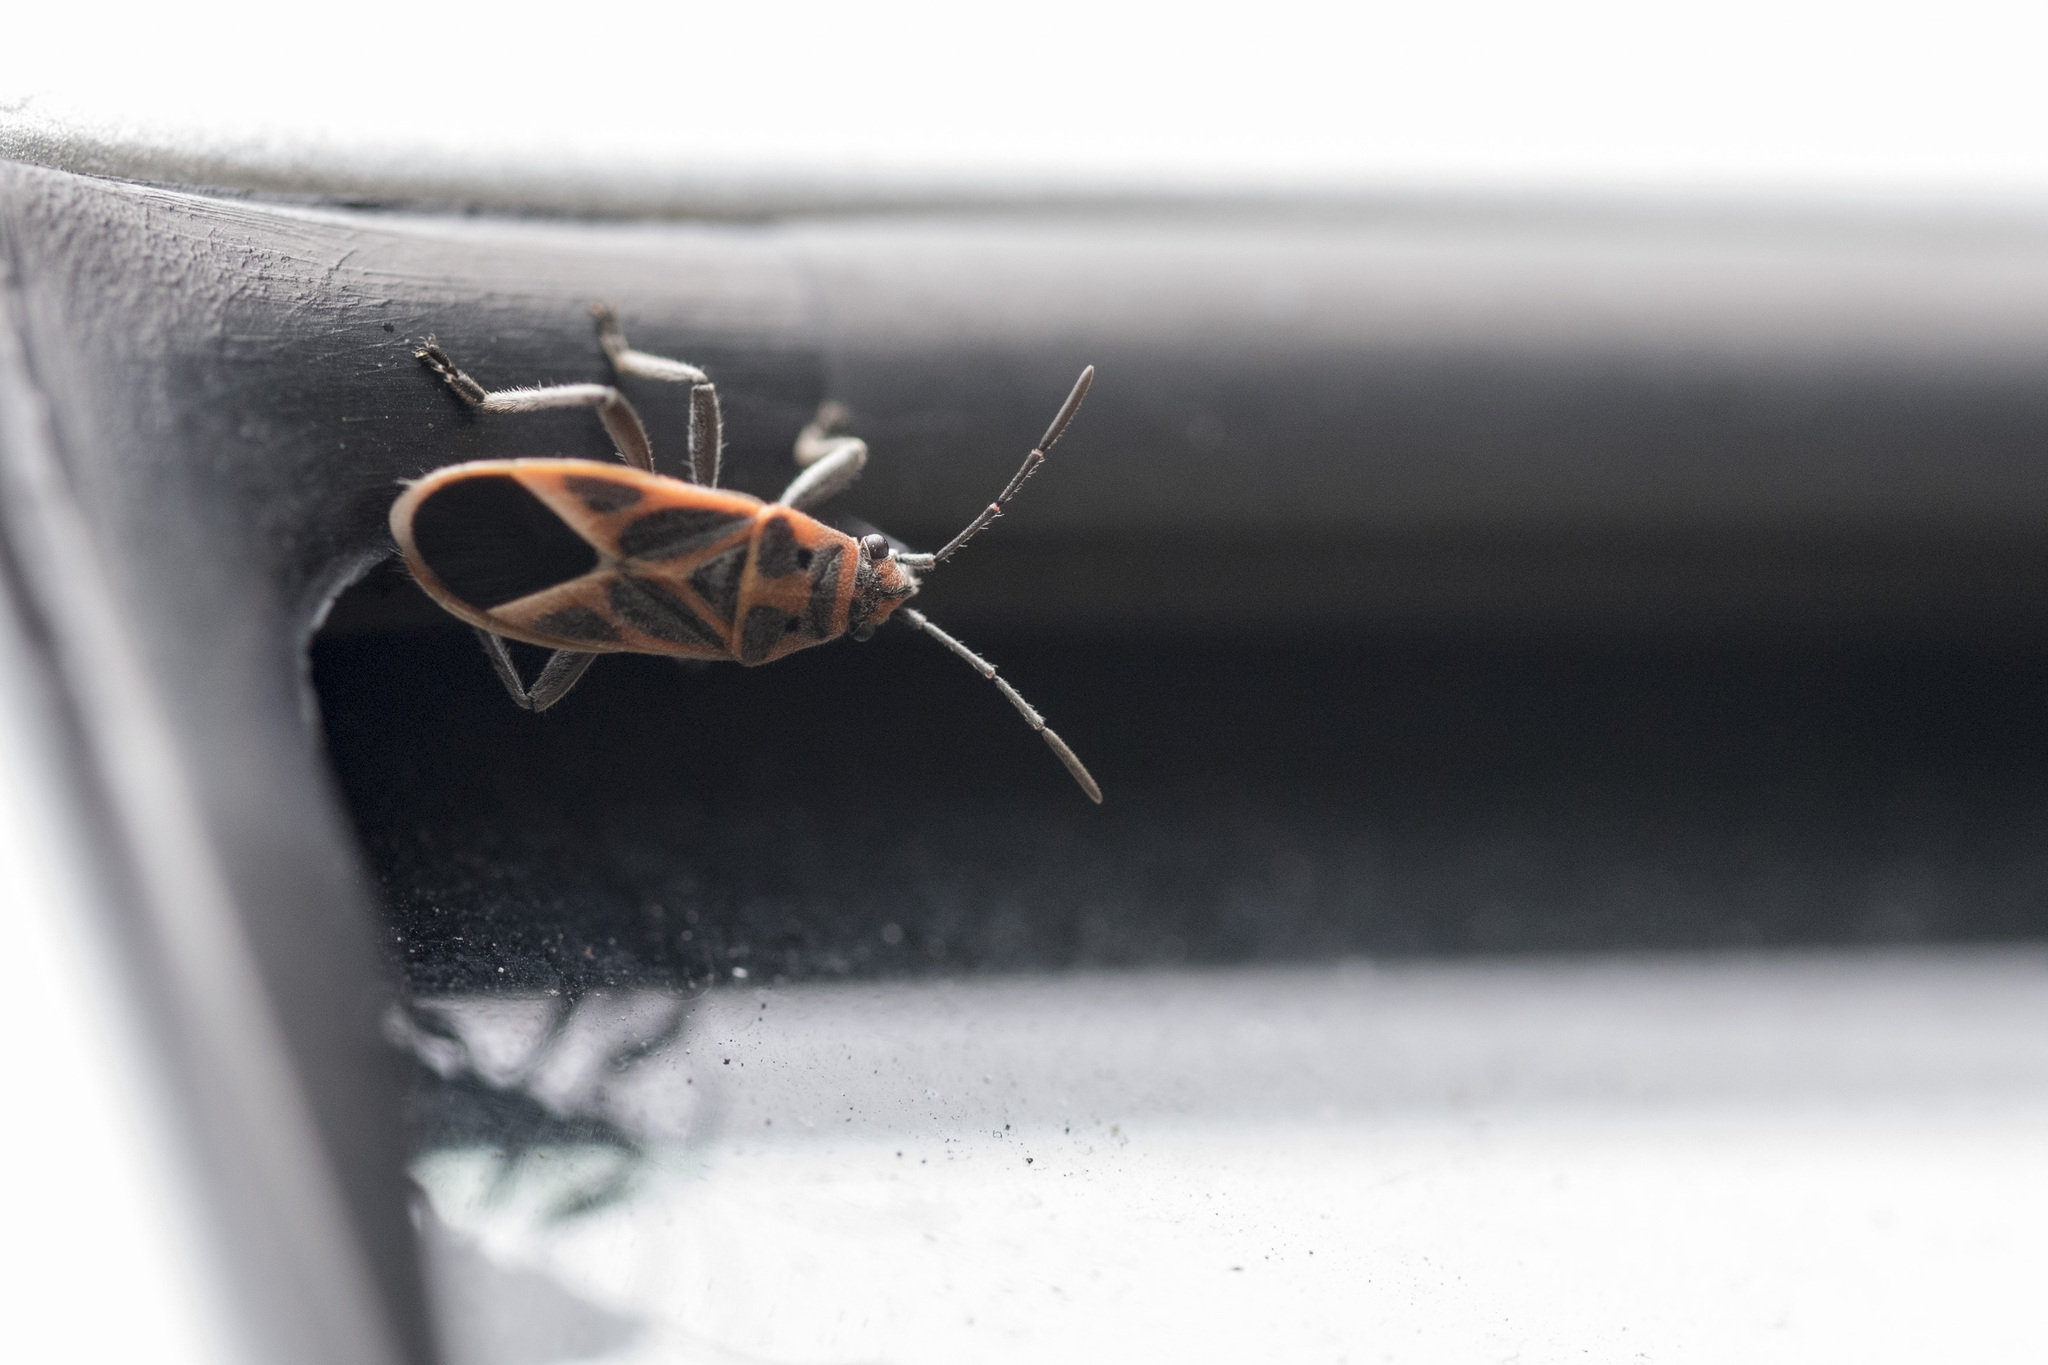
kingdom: Animalia
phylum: Arthropoda
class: Insecta
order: Hemiptera
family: Lygaeidae
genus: Graptostethus
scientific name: Graptostethus servus
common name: Lygaeid bug
